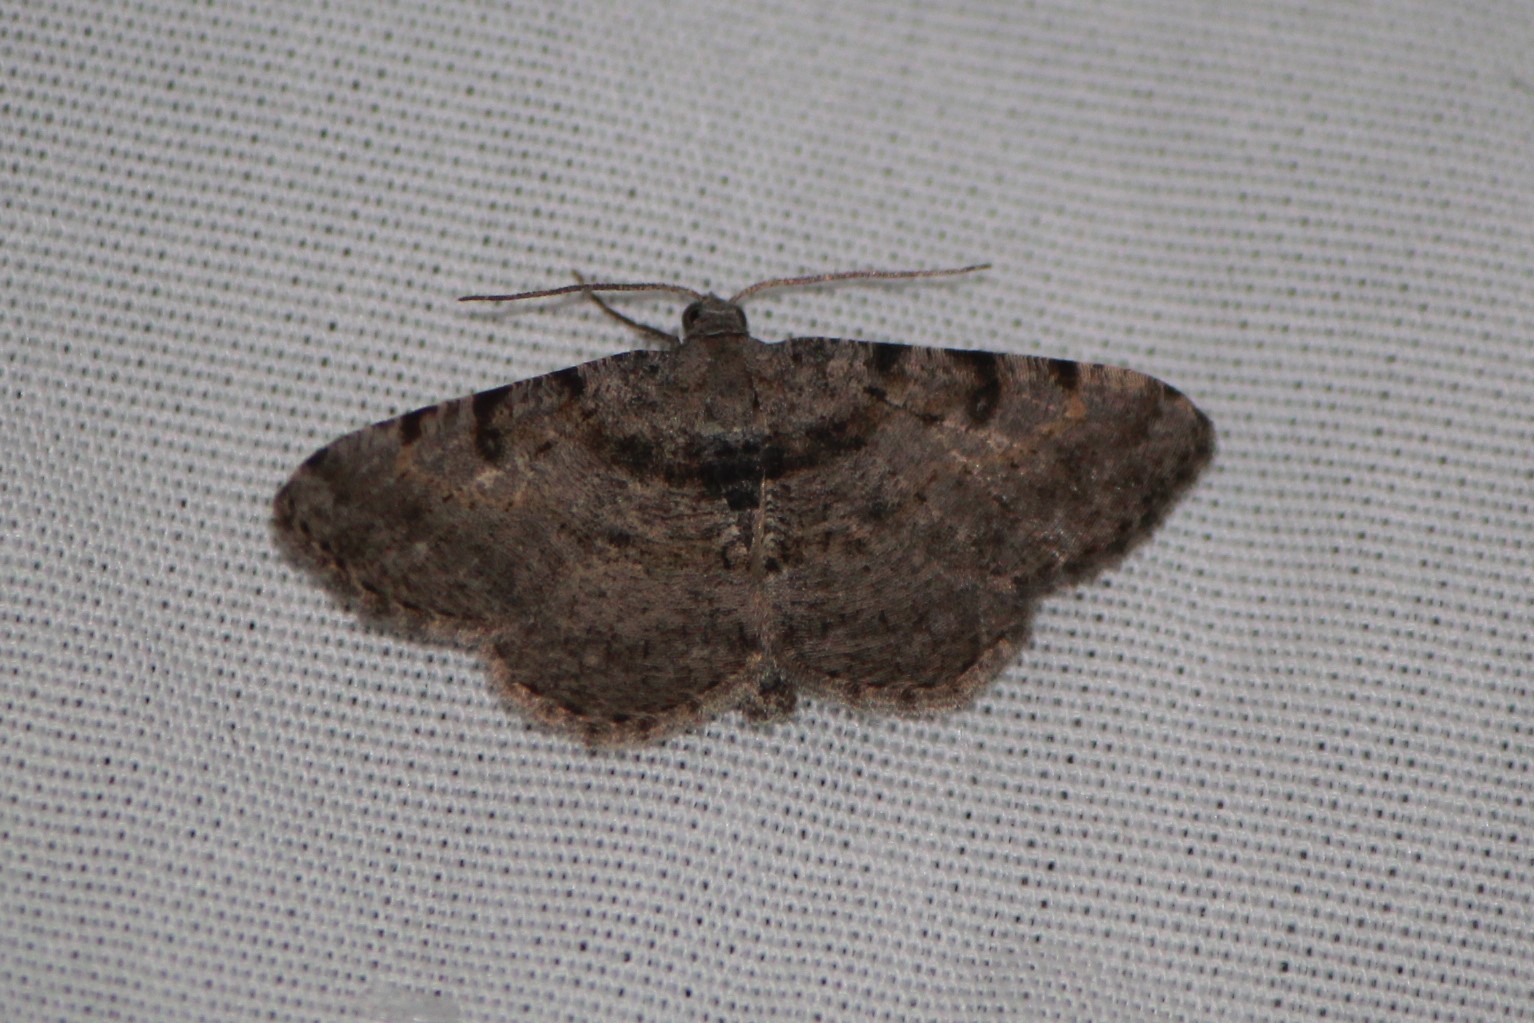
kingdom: Animalia
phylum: Arthropoda
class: Insecta
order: Lepidoptera
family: Geometridae
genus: Digrammia
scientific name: Digrammia gnophosaria
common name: Hollow-spotted angle
